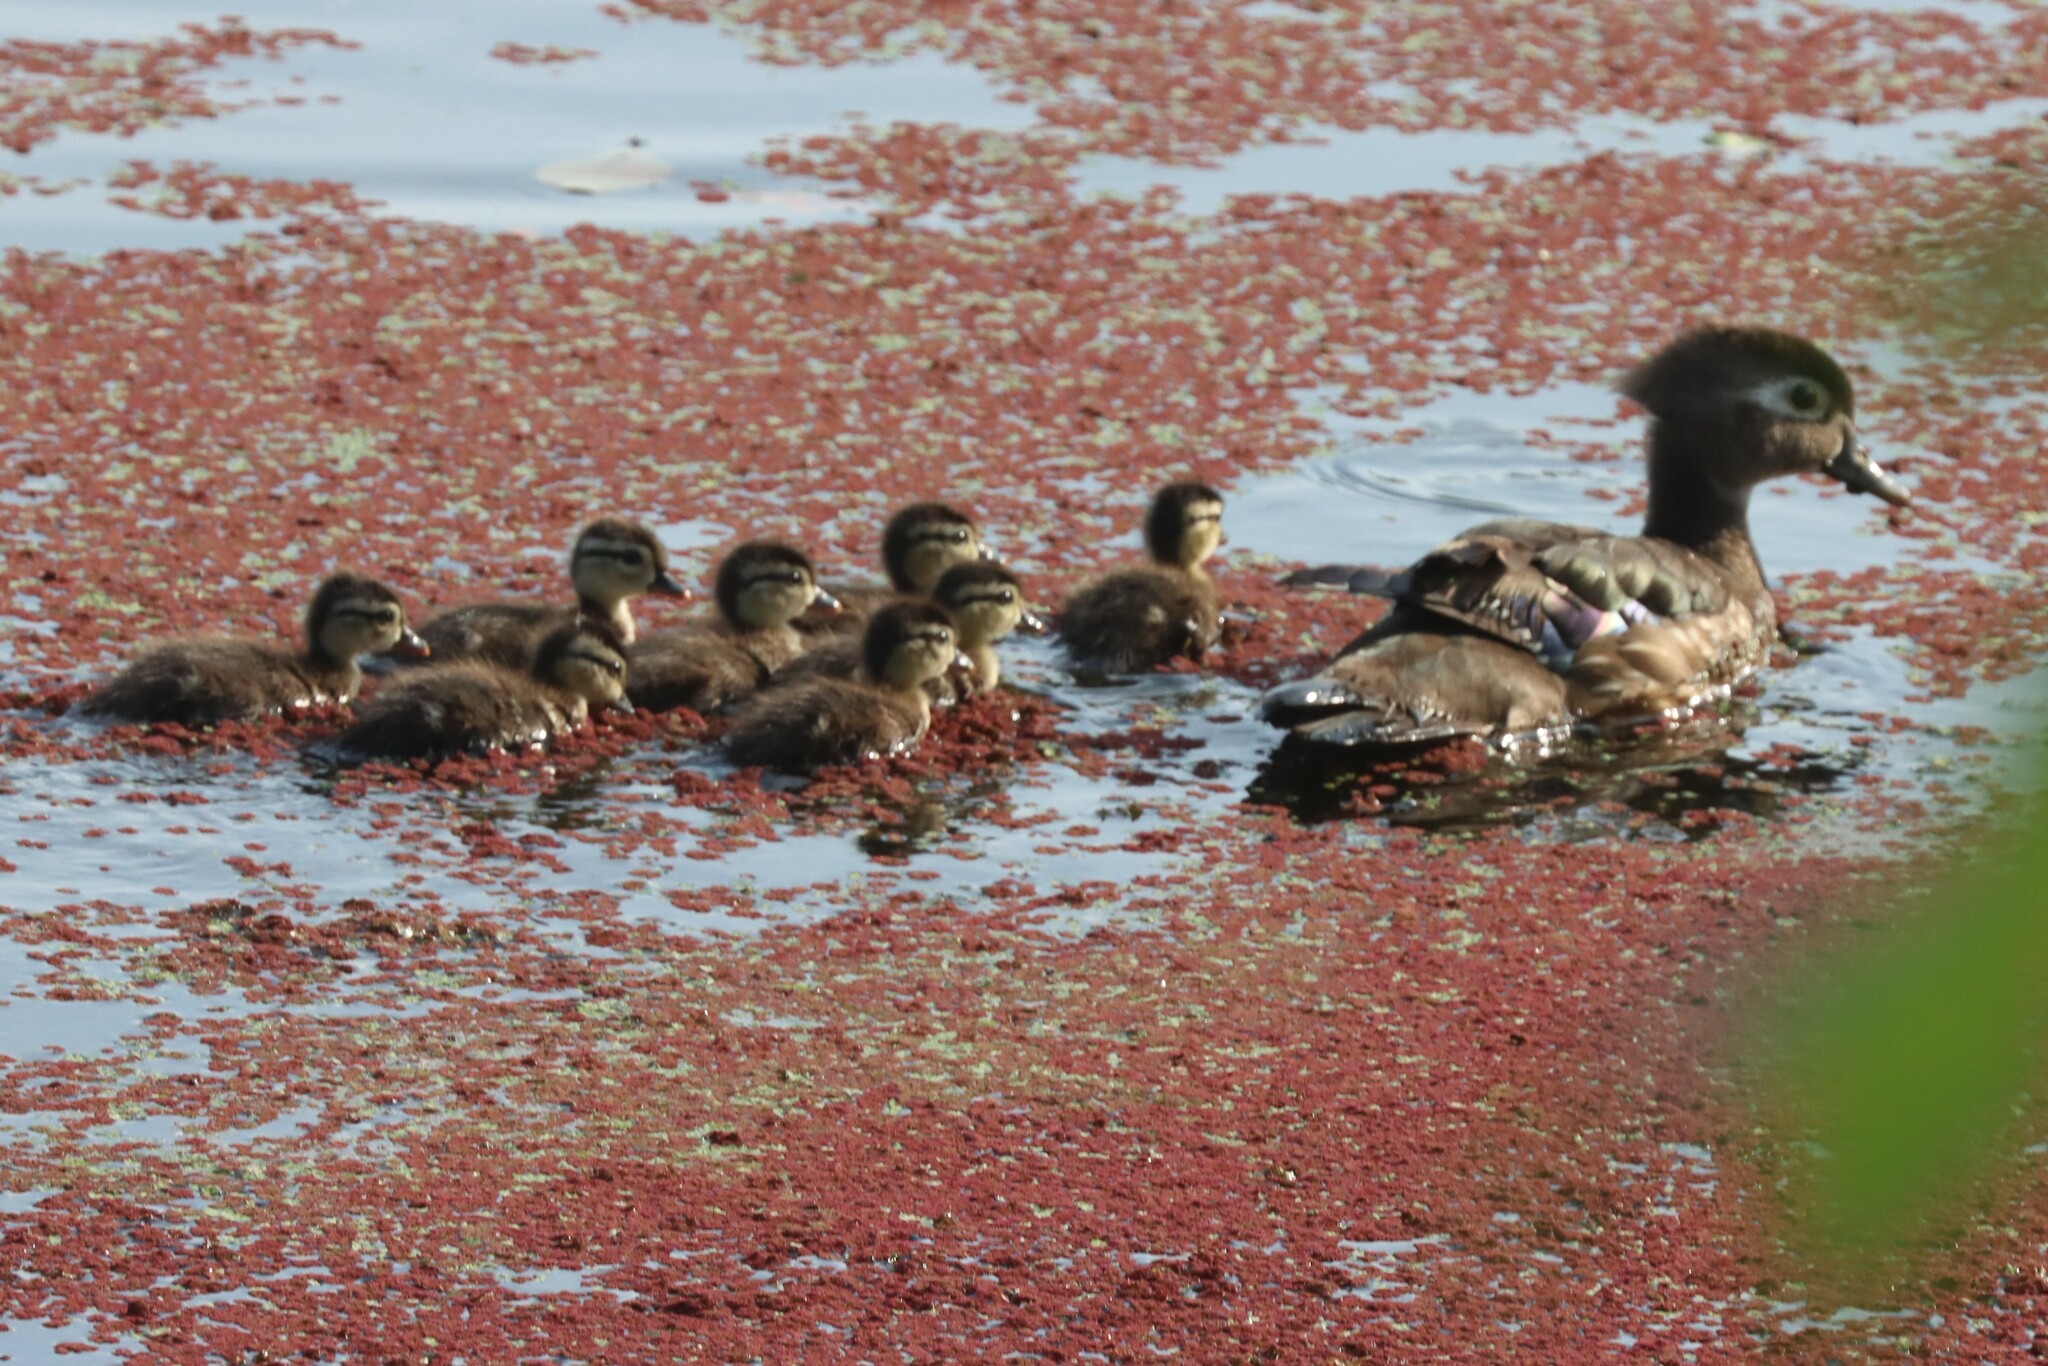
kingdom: Animalia
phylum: Chordata
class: Aves
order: Anseriformes
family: Anatidae
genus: Aix
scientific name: Aix sponsa
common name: Wood duck
